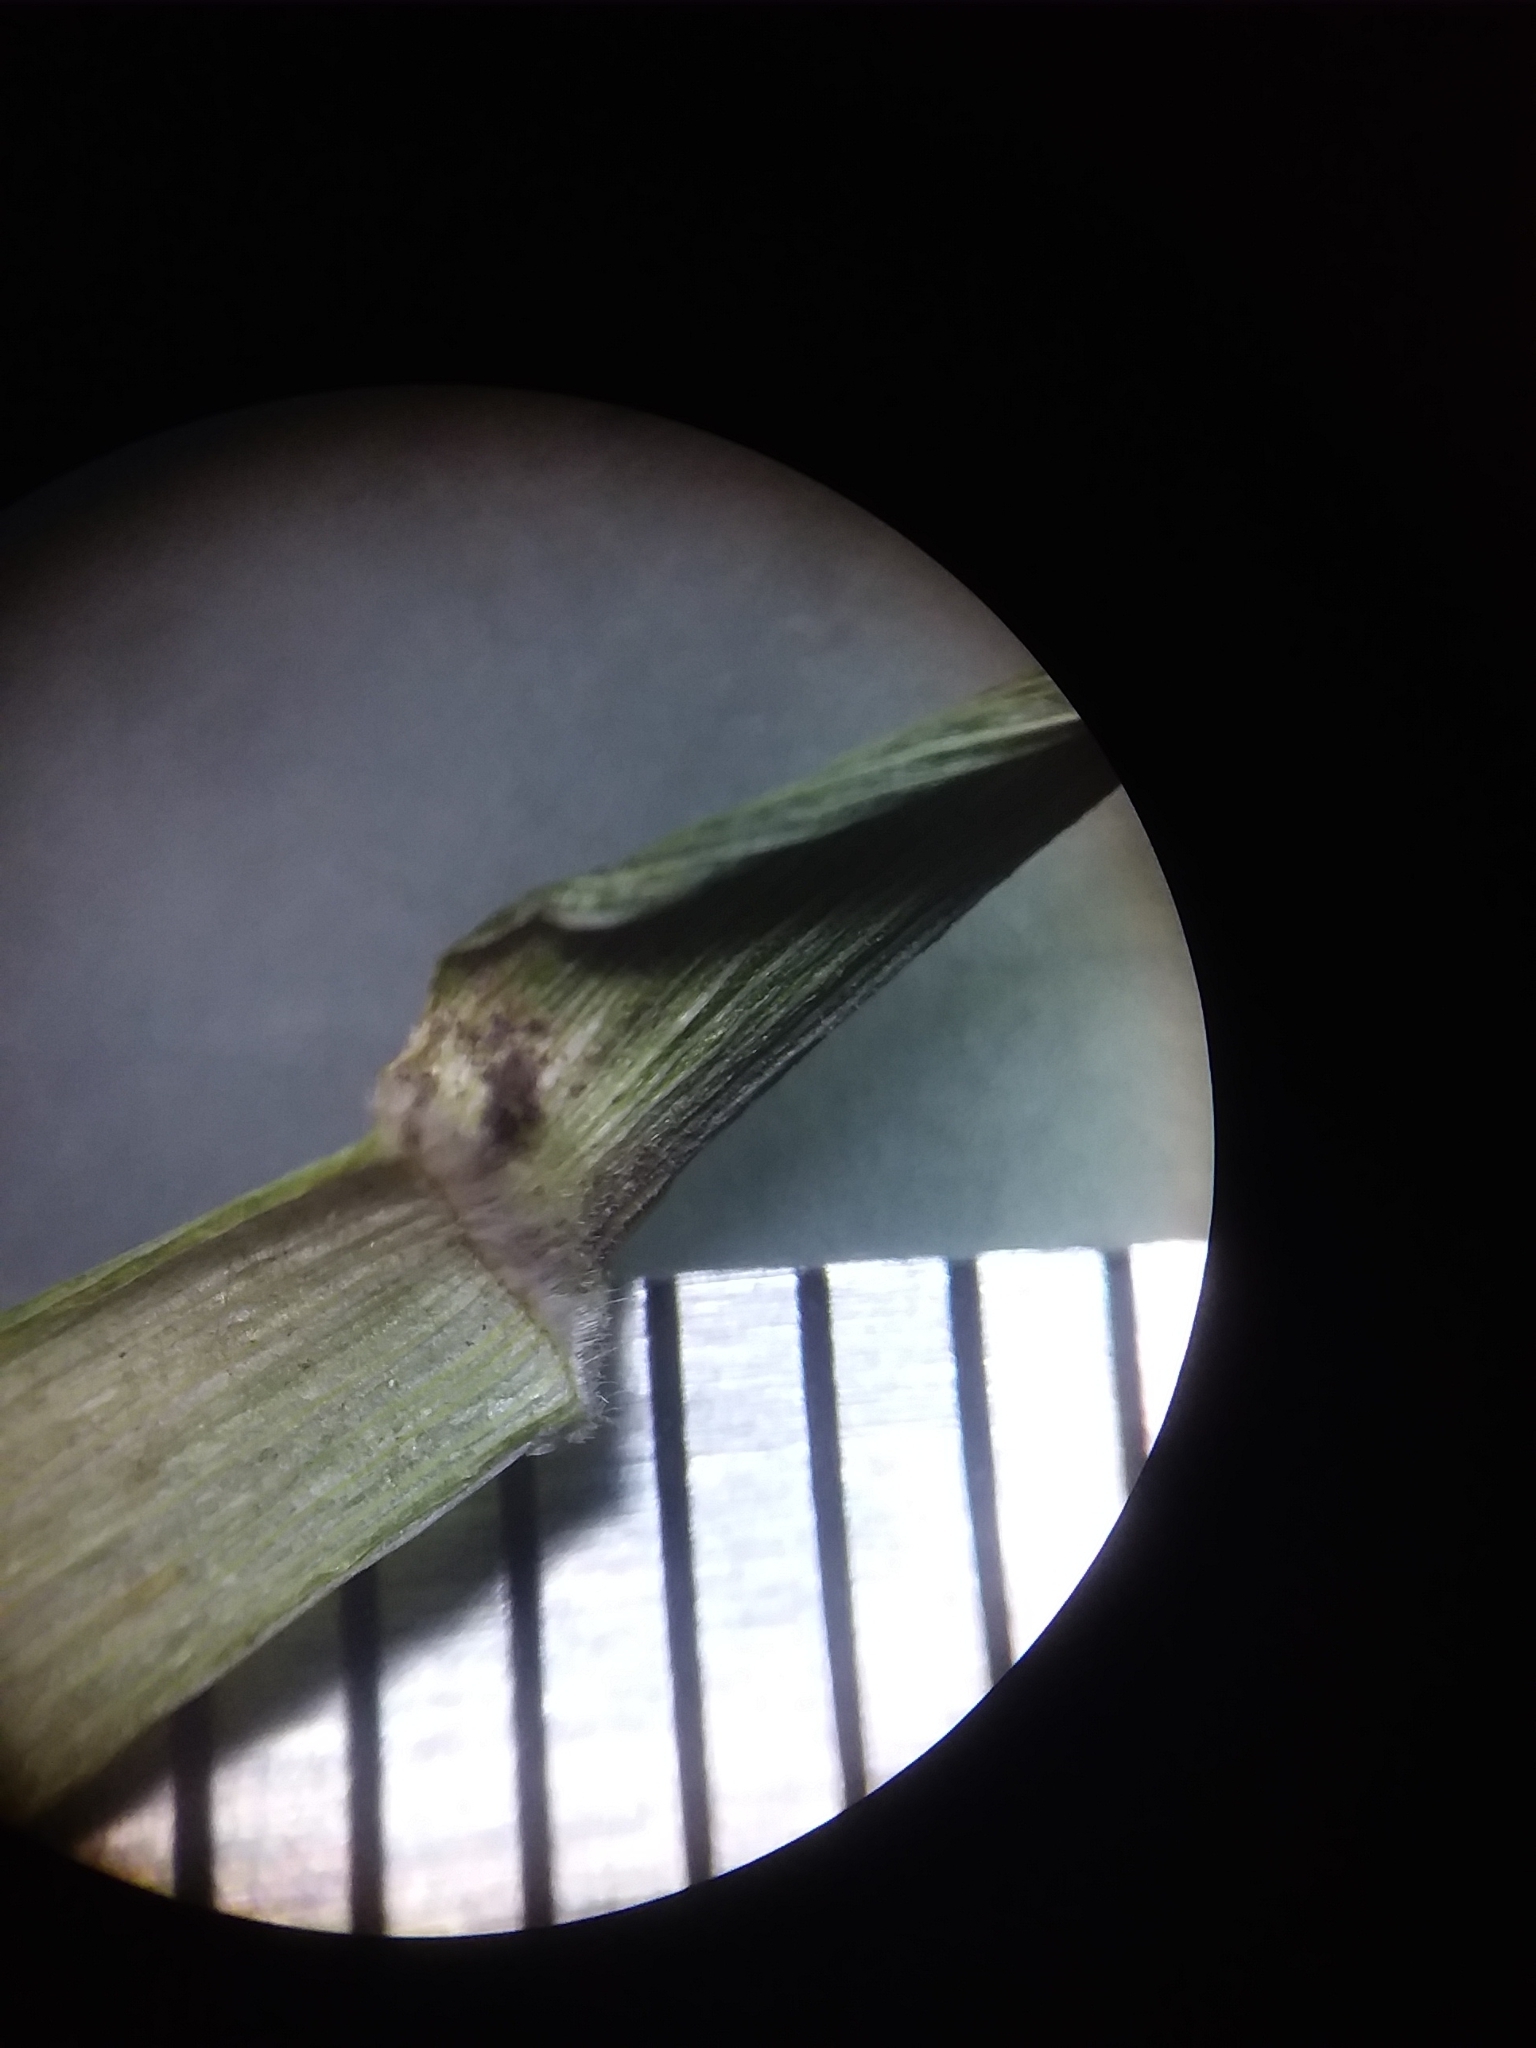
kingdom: Plantae
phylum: Tracheophyta
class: Liliopsida
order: Poales
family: Poaceae
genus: Dichanthelium
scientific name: Dichanthelium nudicaule
